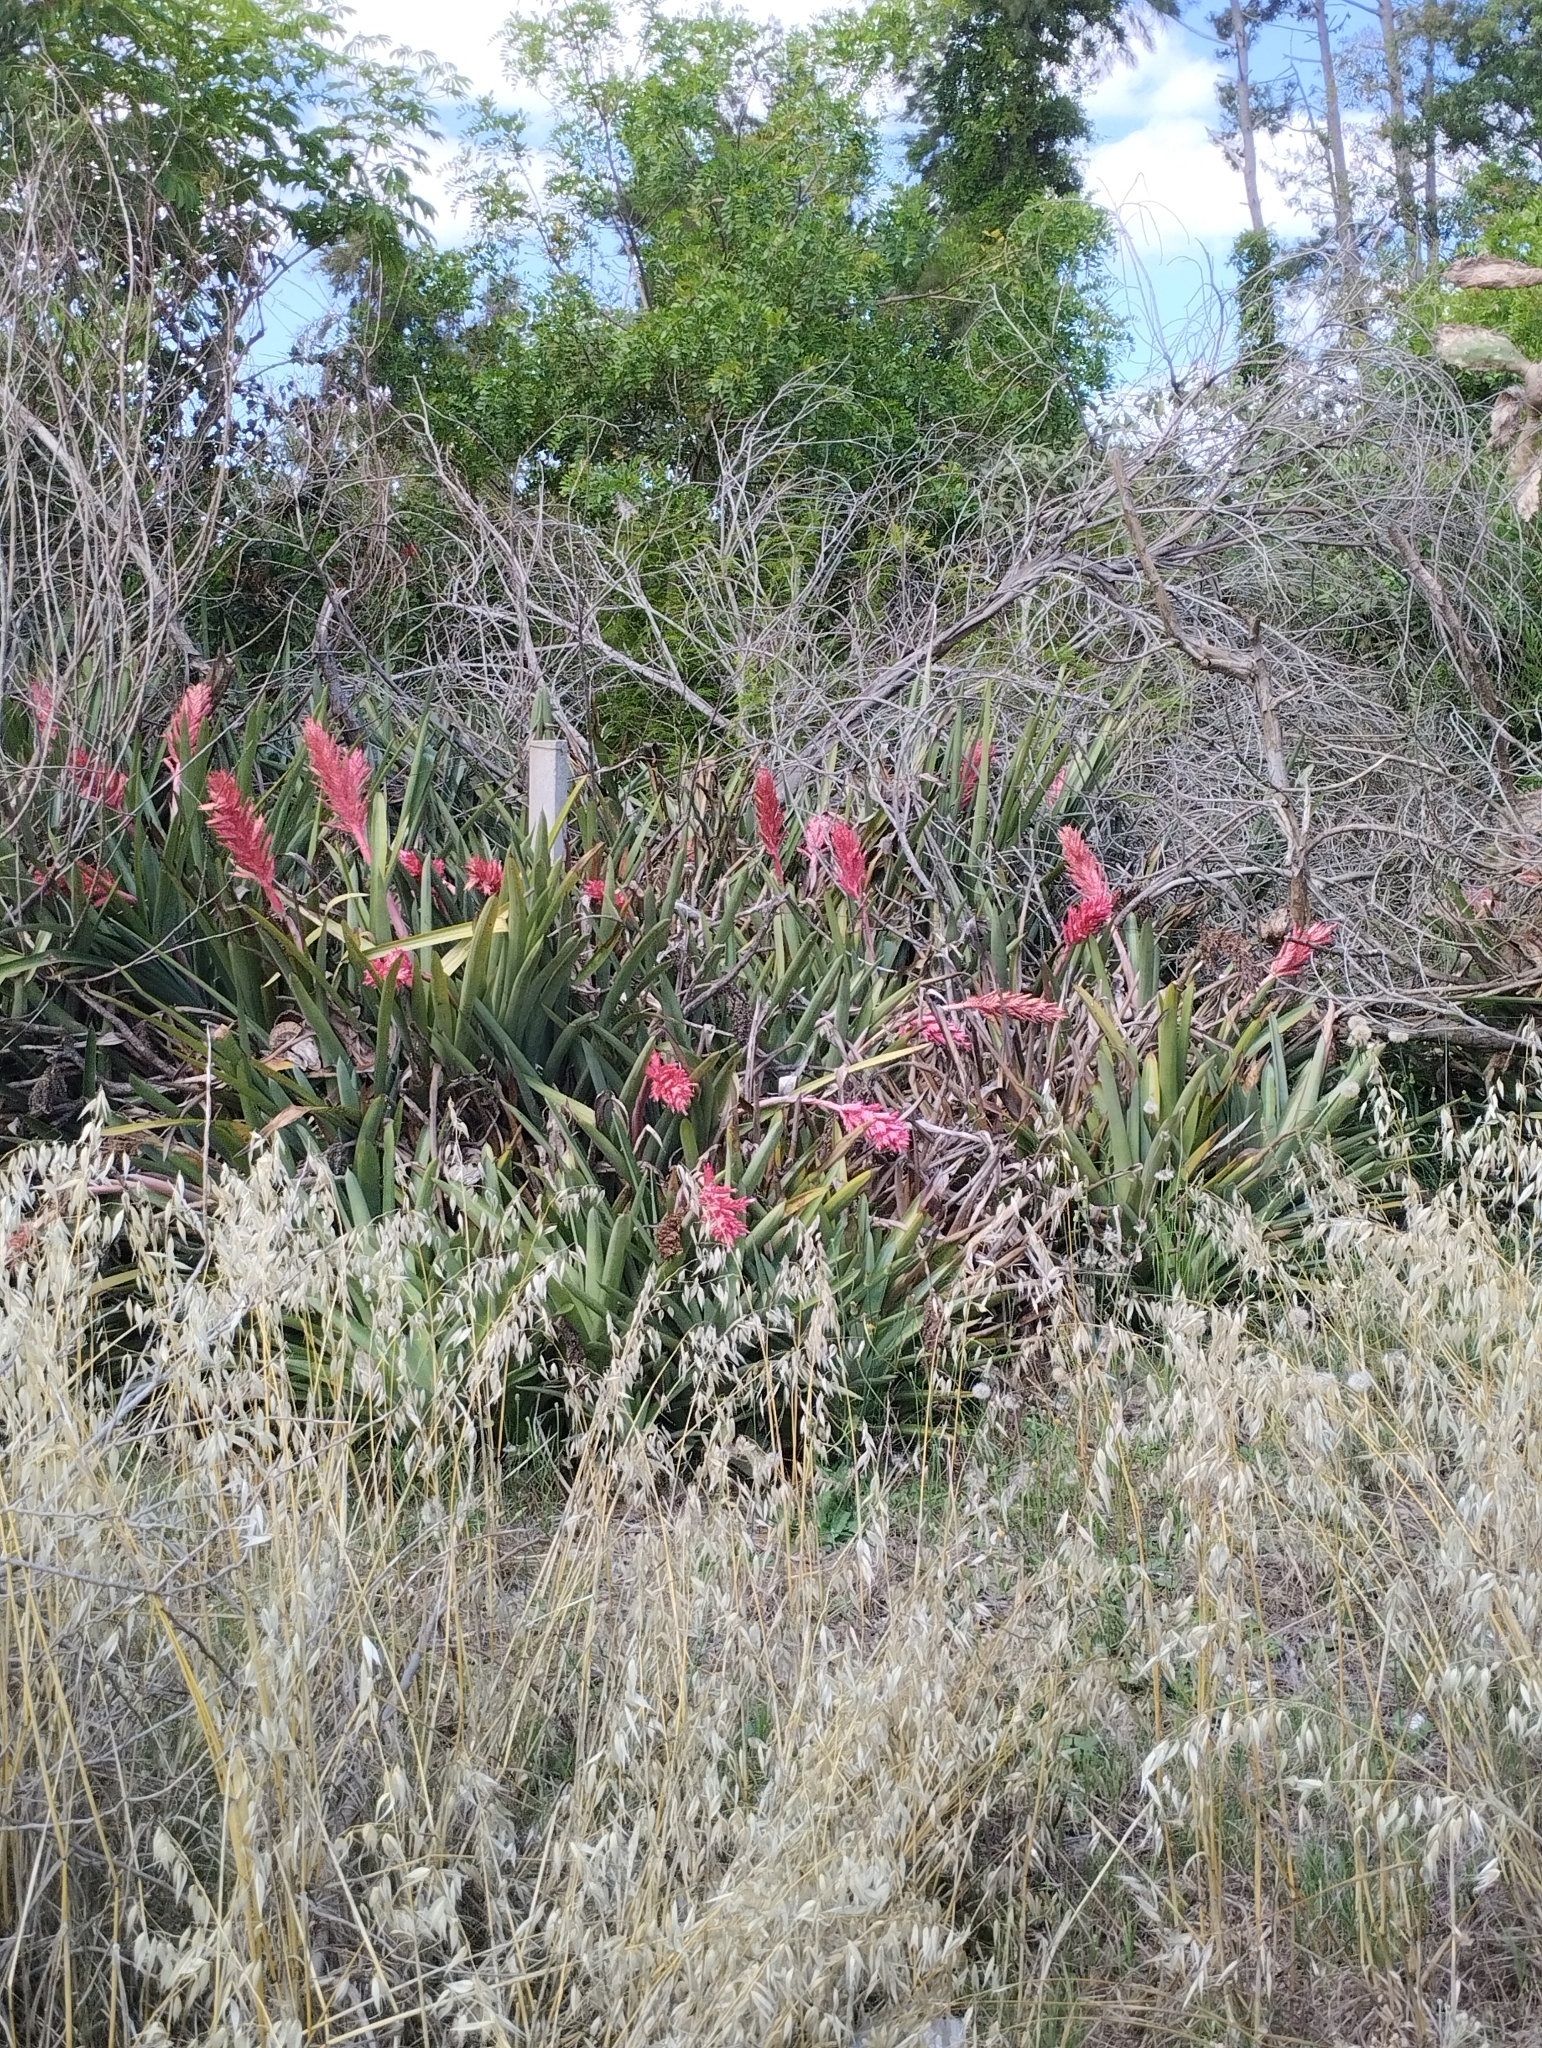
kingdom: Plantae
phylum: Tracheophyta
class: Liliopsida
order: Poales
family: Bromeliaceae
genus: Aechmea
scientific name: Aechmea distichantha
